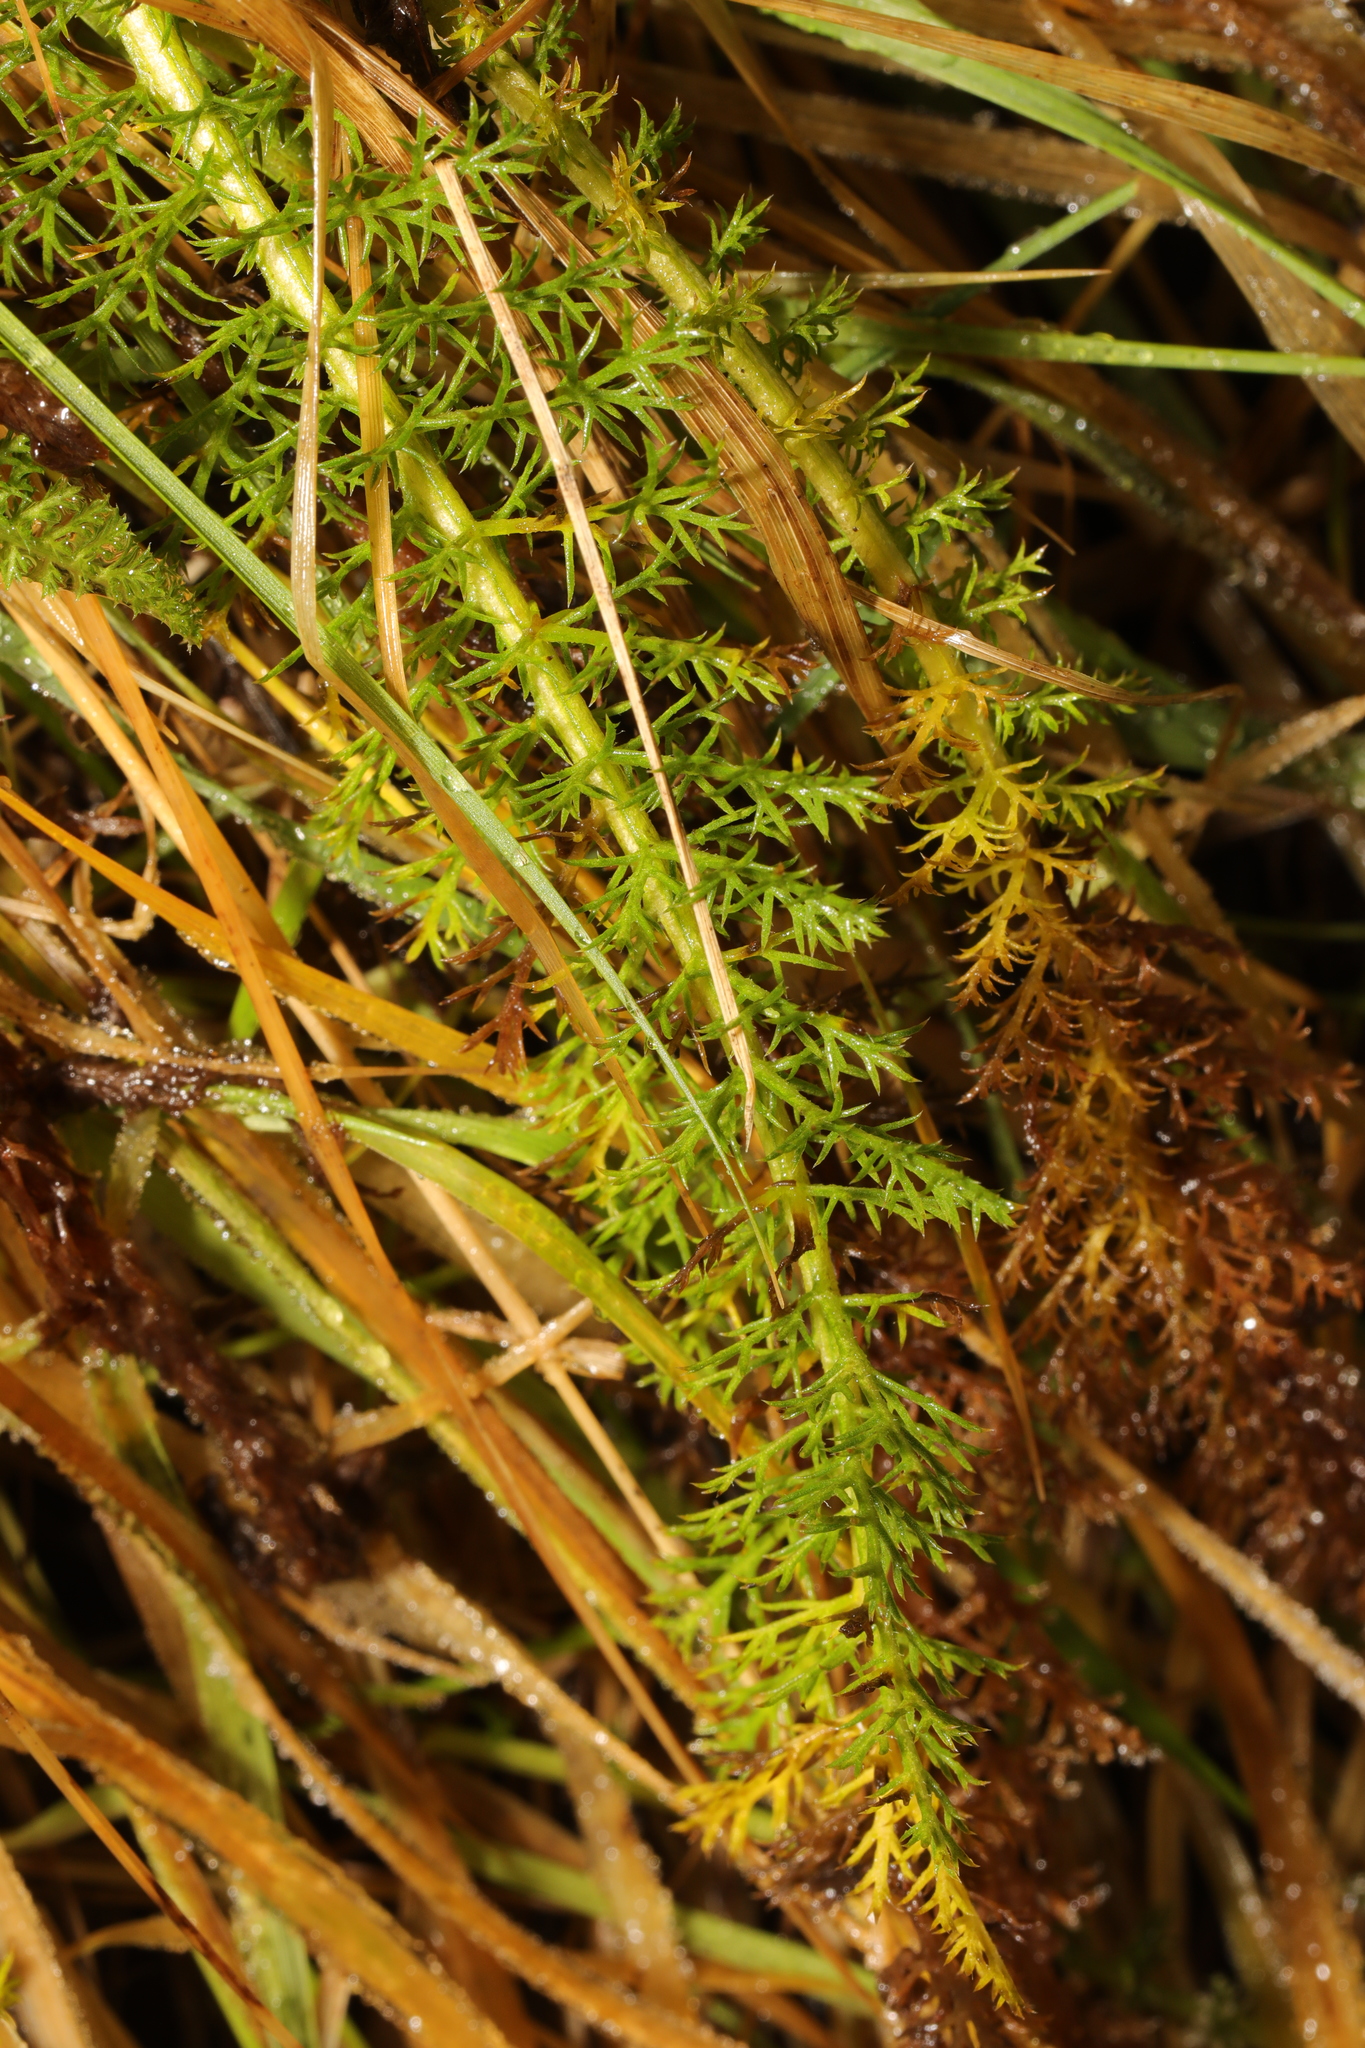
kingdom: Plantae
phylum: Tracheophyta
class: Magnoliopsida
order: Asterales
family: Asteraceae
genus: Achillea
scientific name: Achillea millefolium
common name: Yarrow
